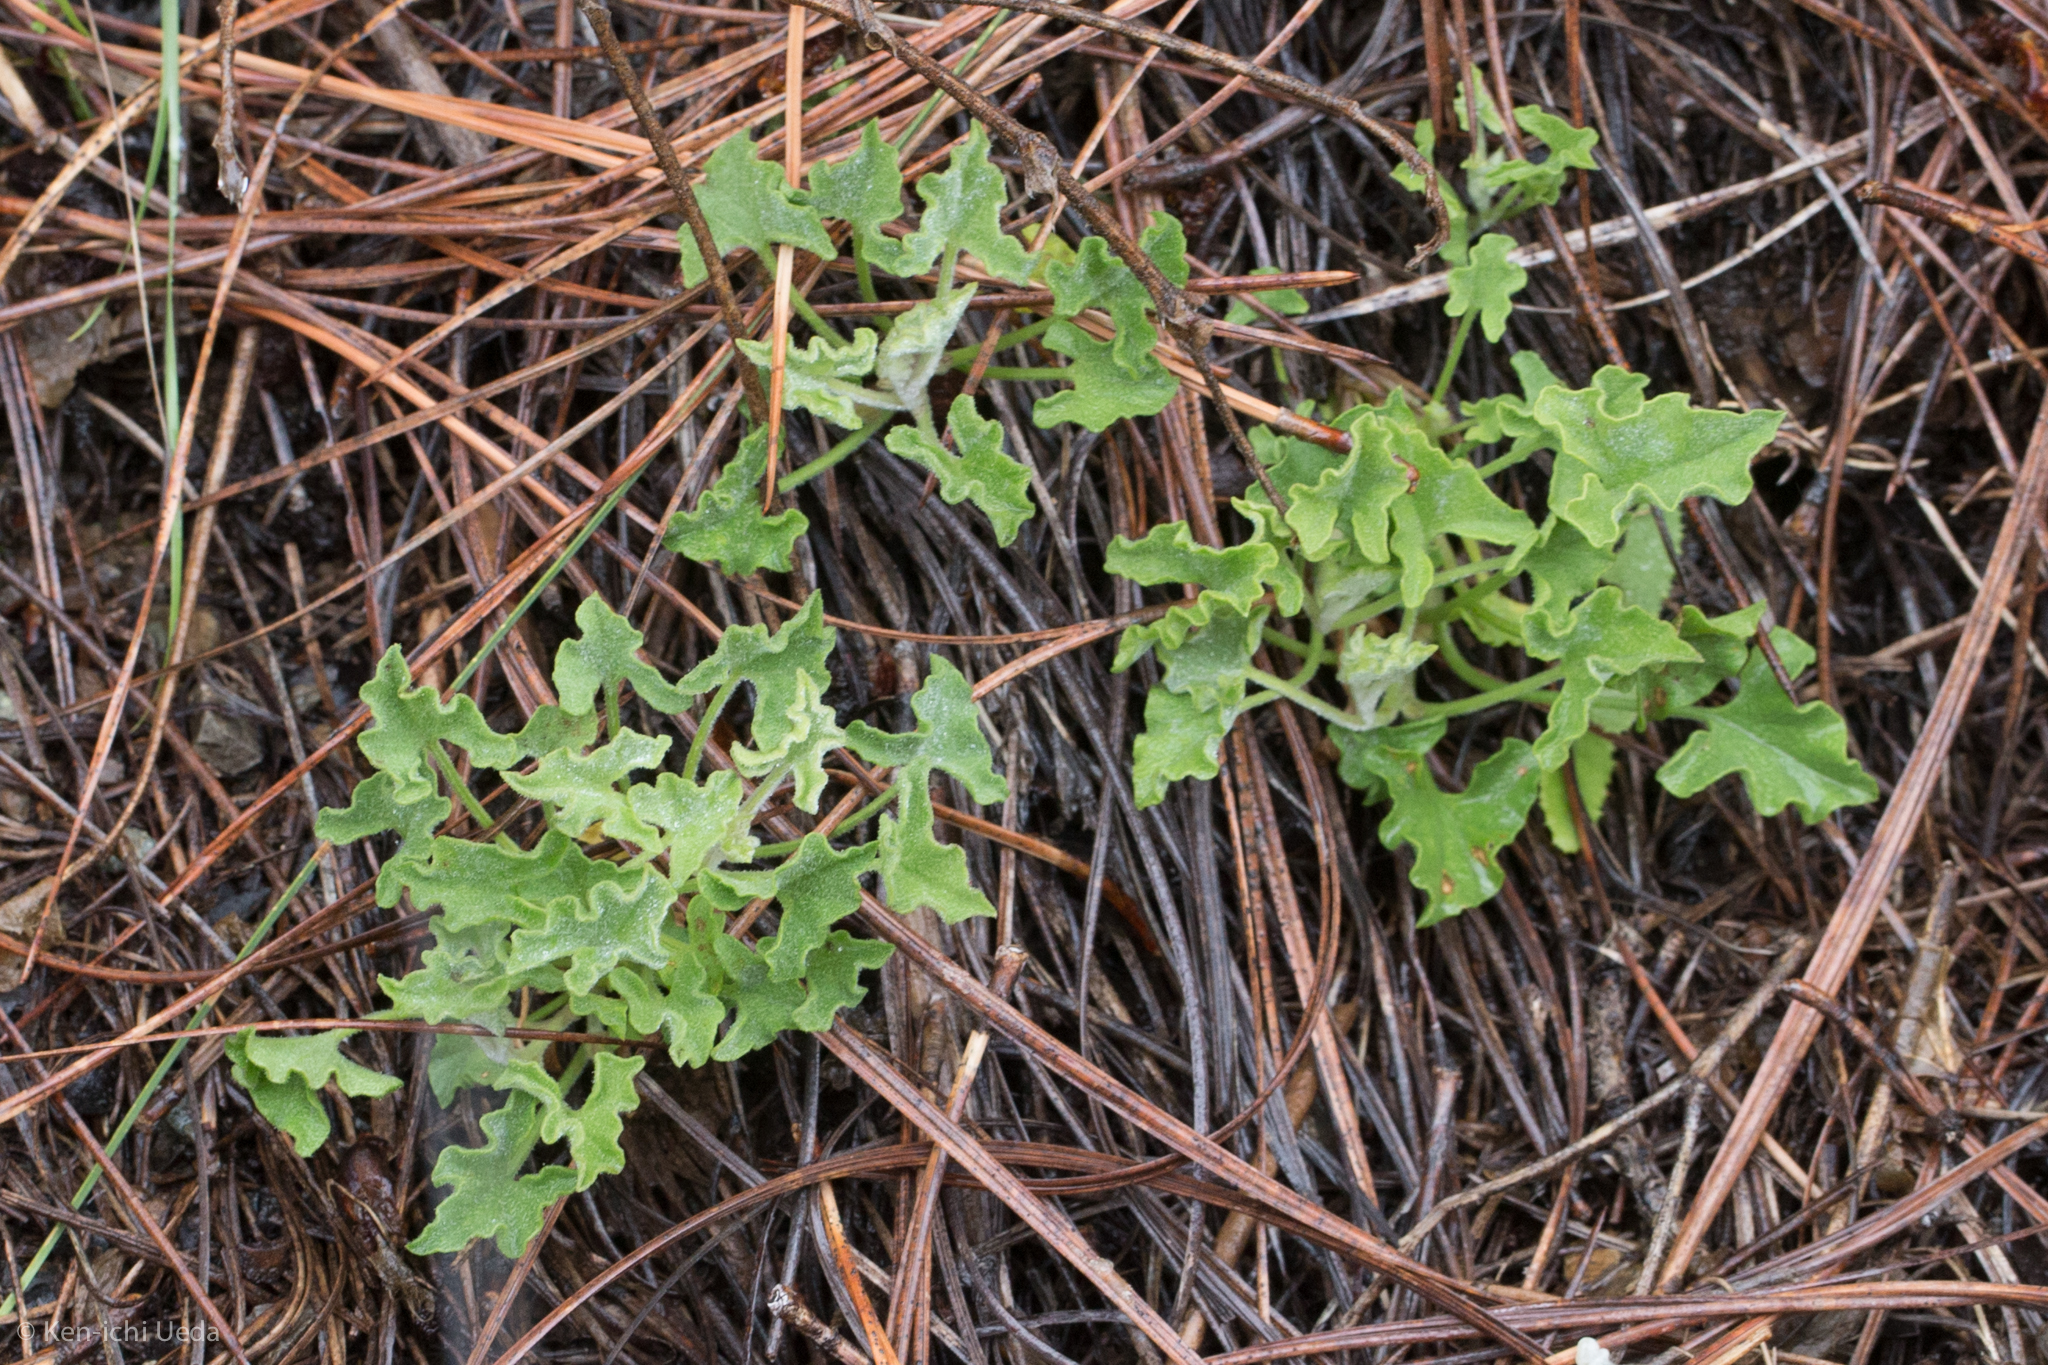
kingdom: Plantae
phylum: Tracheophyta
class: Magnoliopsida
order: Solanales
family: Convolvulaceae
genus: Calystegia
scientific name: Calystegia collina
